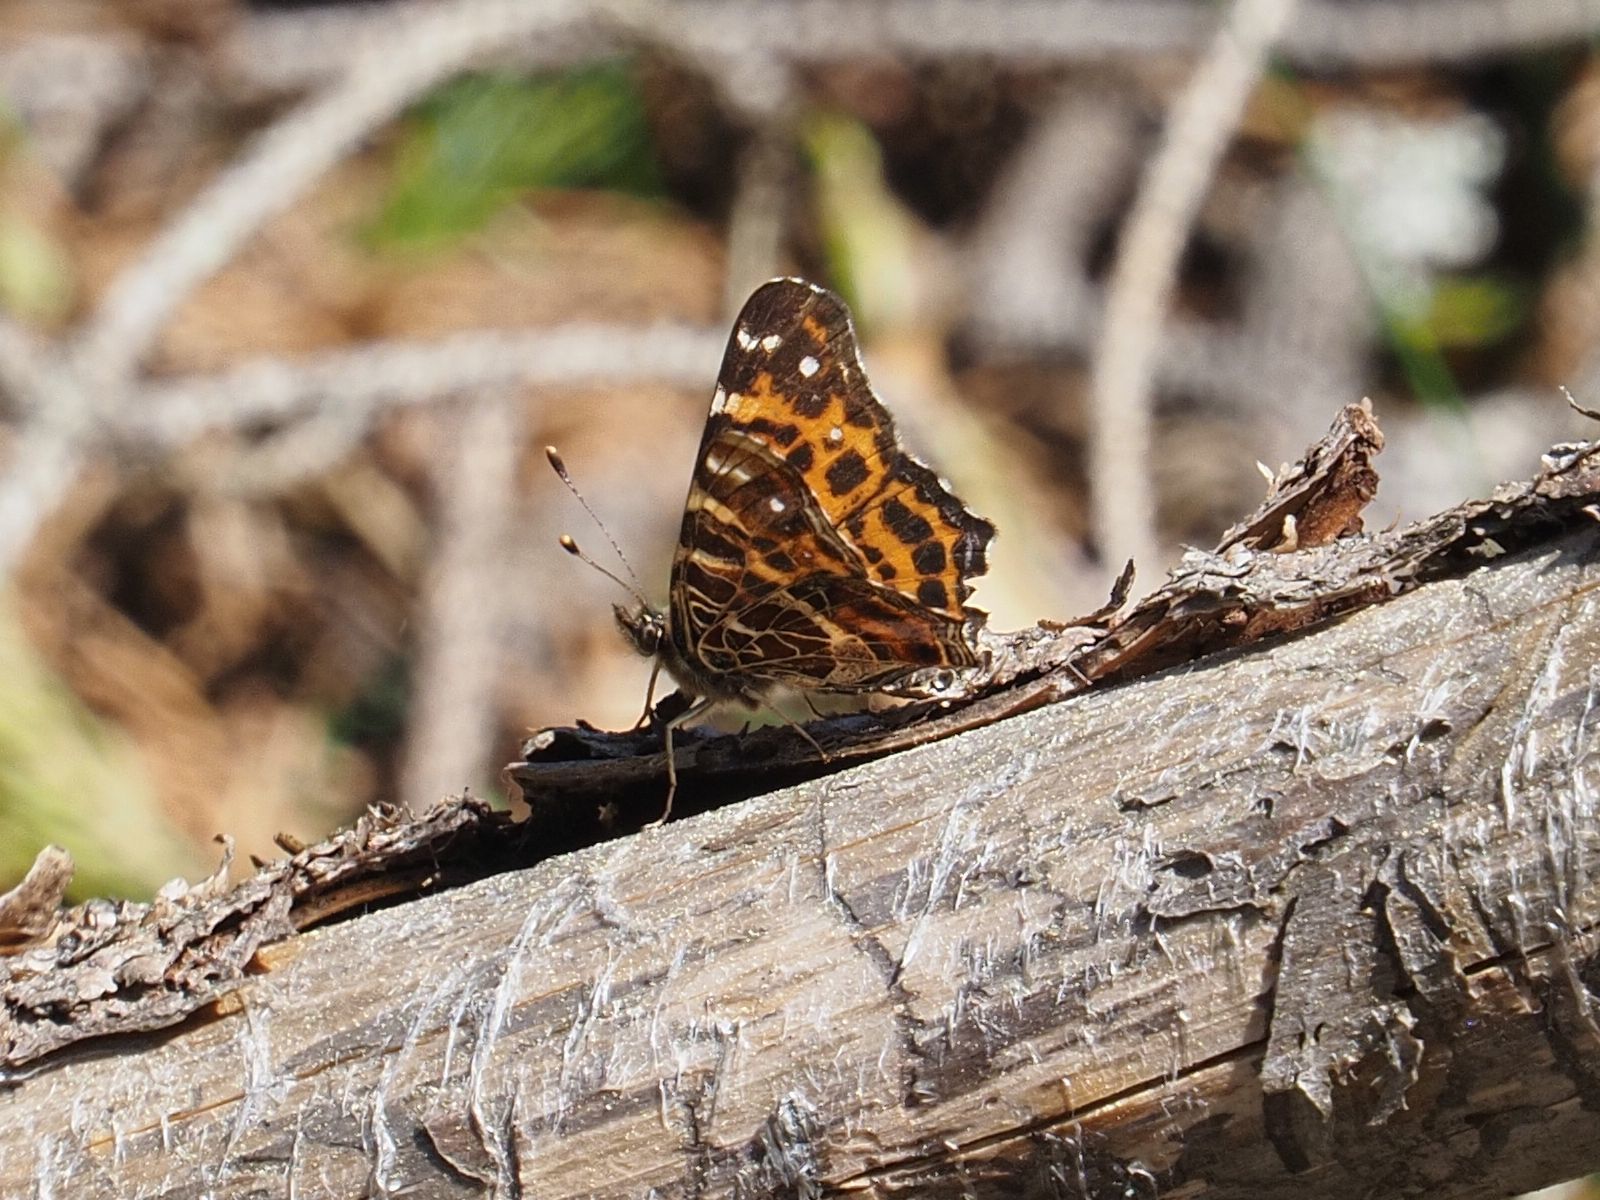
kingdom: Animalia
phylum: Arthropoda
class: Insecta
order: Lepidoptera
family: Nymphalidae
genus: Araschnia
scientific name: Araschnia levana
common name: Map butterfly
